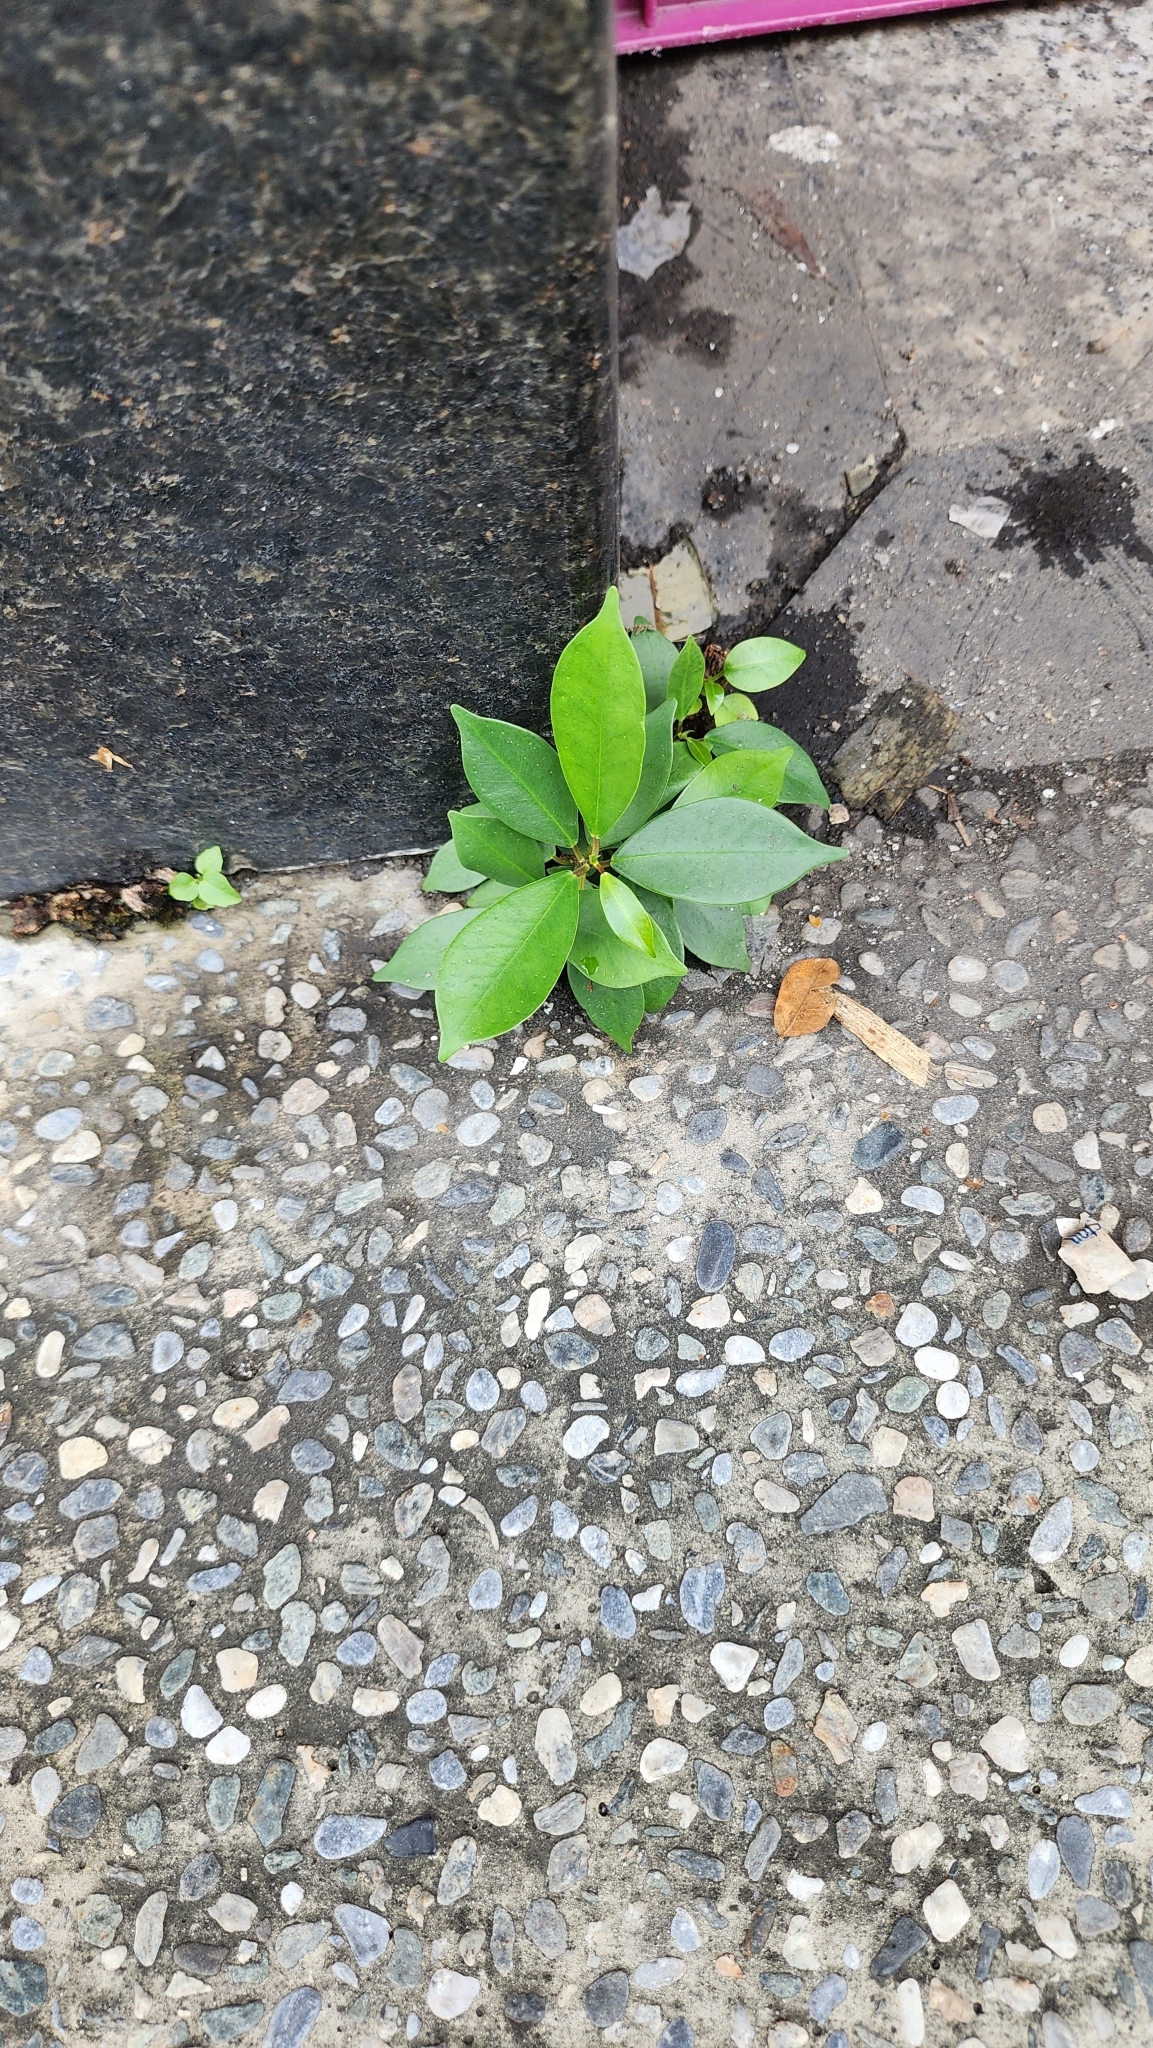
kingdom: Plantae
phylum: Tracheophyta
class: Magnoliopsida
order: Rosales
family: Moraceae
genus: Ficus
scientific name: Ficus microcarpa
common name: Chinese banyan
